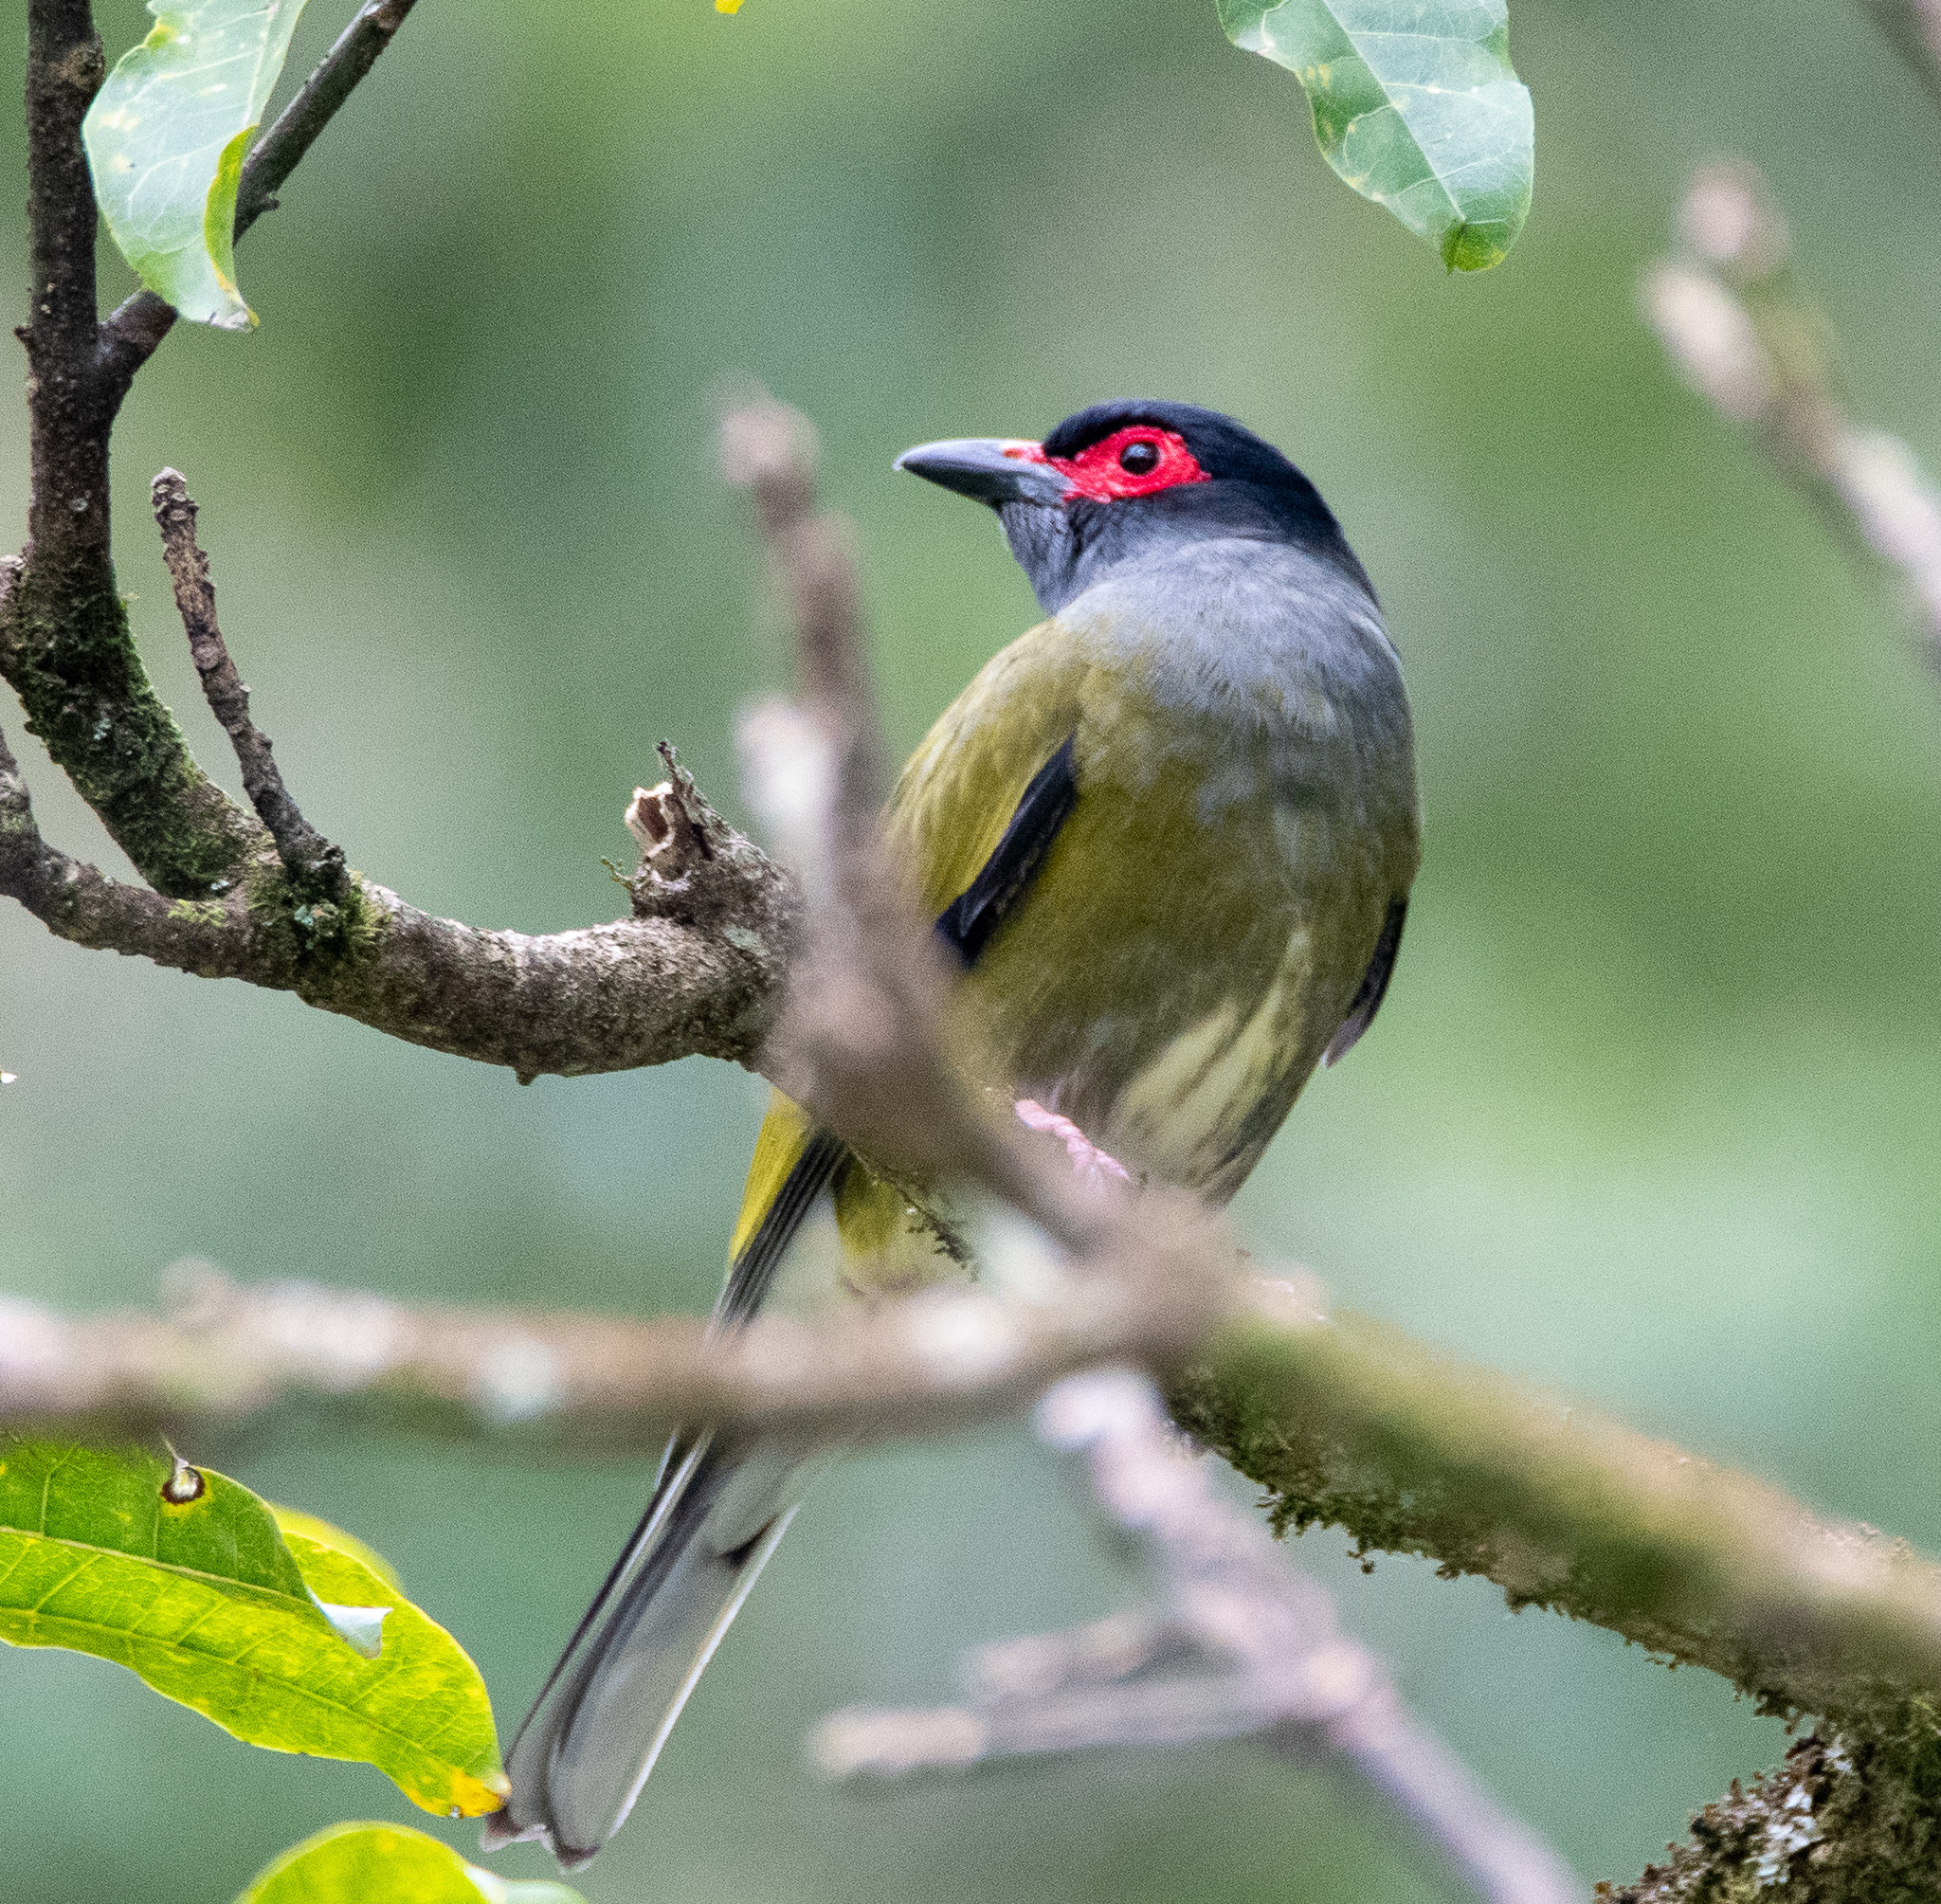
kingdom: Animalia
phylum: Chordata
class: Aves
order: Passeriformes
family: Oriolidae
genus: Sphecotheres
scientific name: Sphecotheres vieilloti
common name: Australasian figbird
